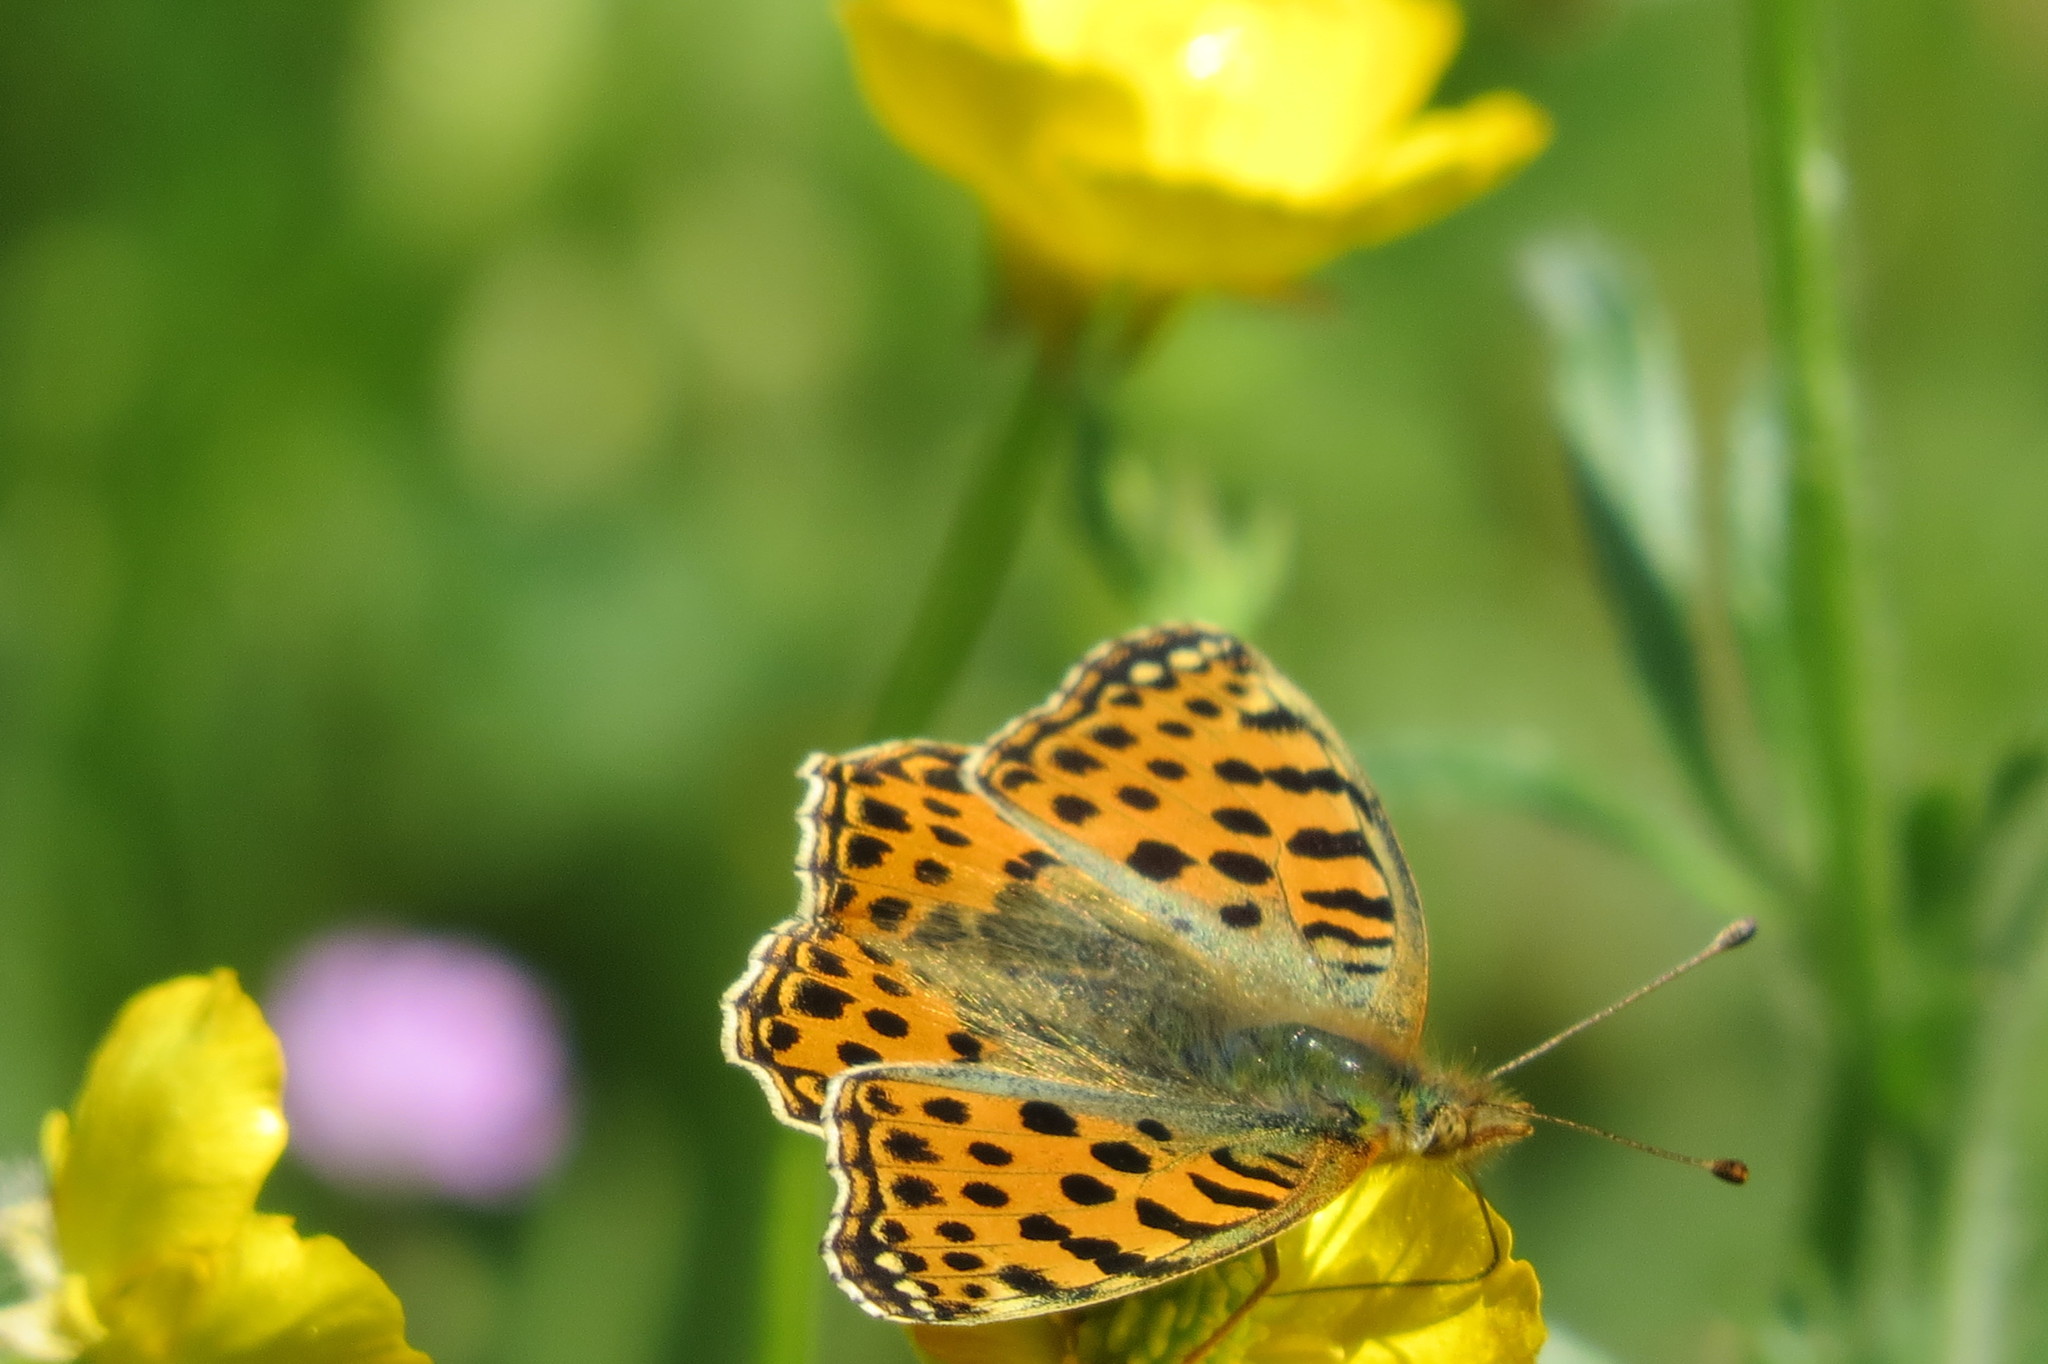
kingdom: Animalia
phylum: Arthropoda
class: Insecta
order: Lepidoptera
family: Nymphalidae
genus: Issoria
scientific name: Issoria lathonia
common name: Queen of spain fritillary
